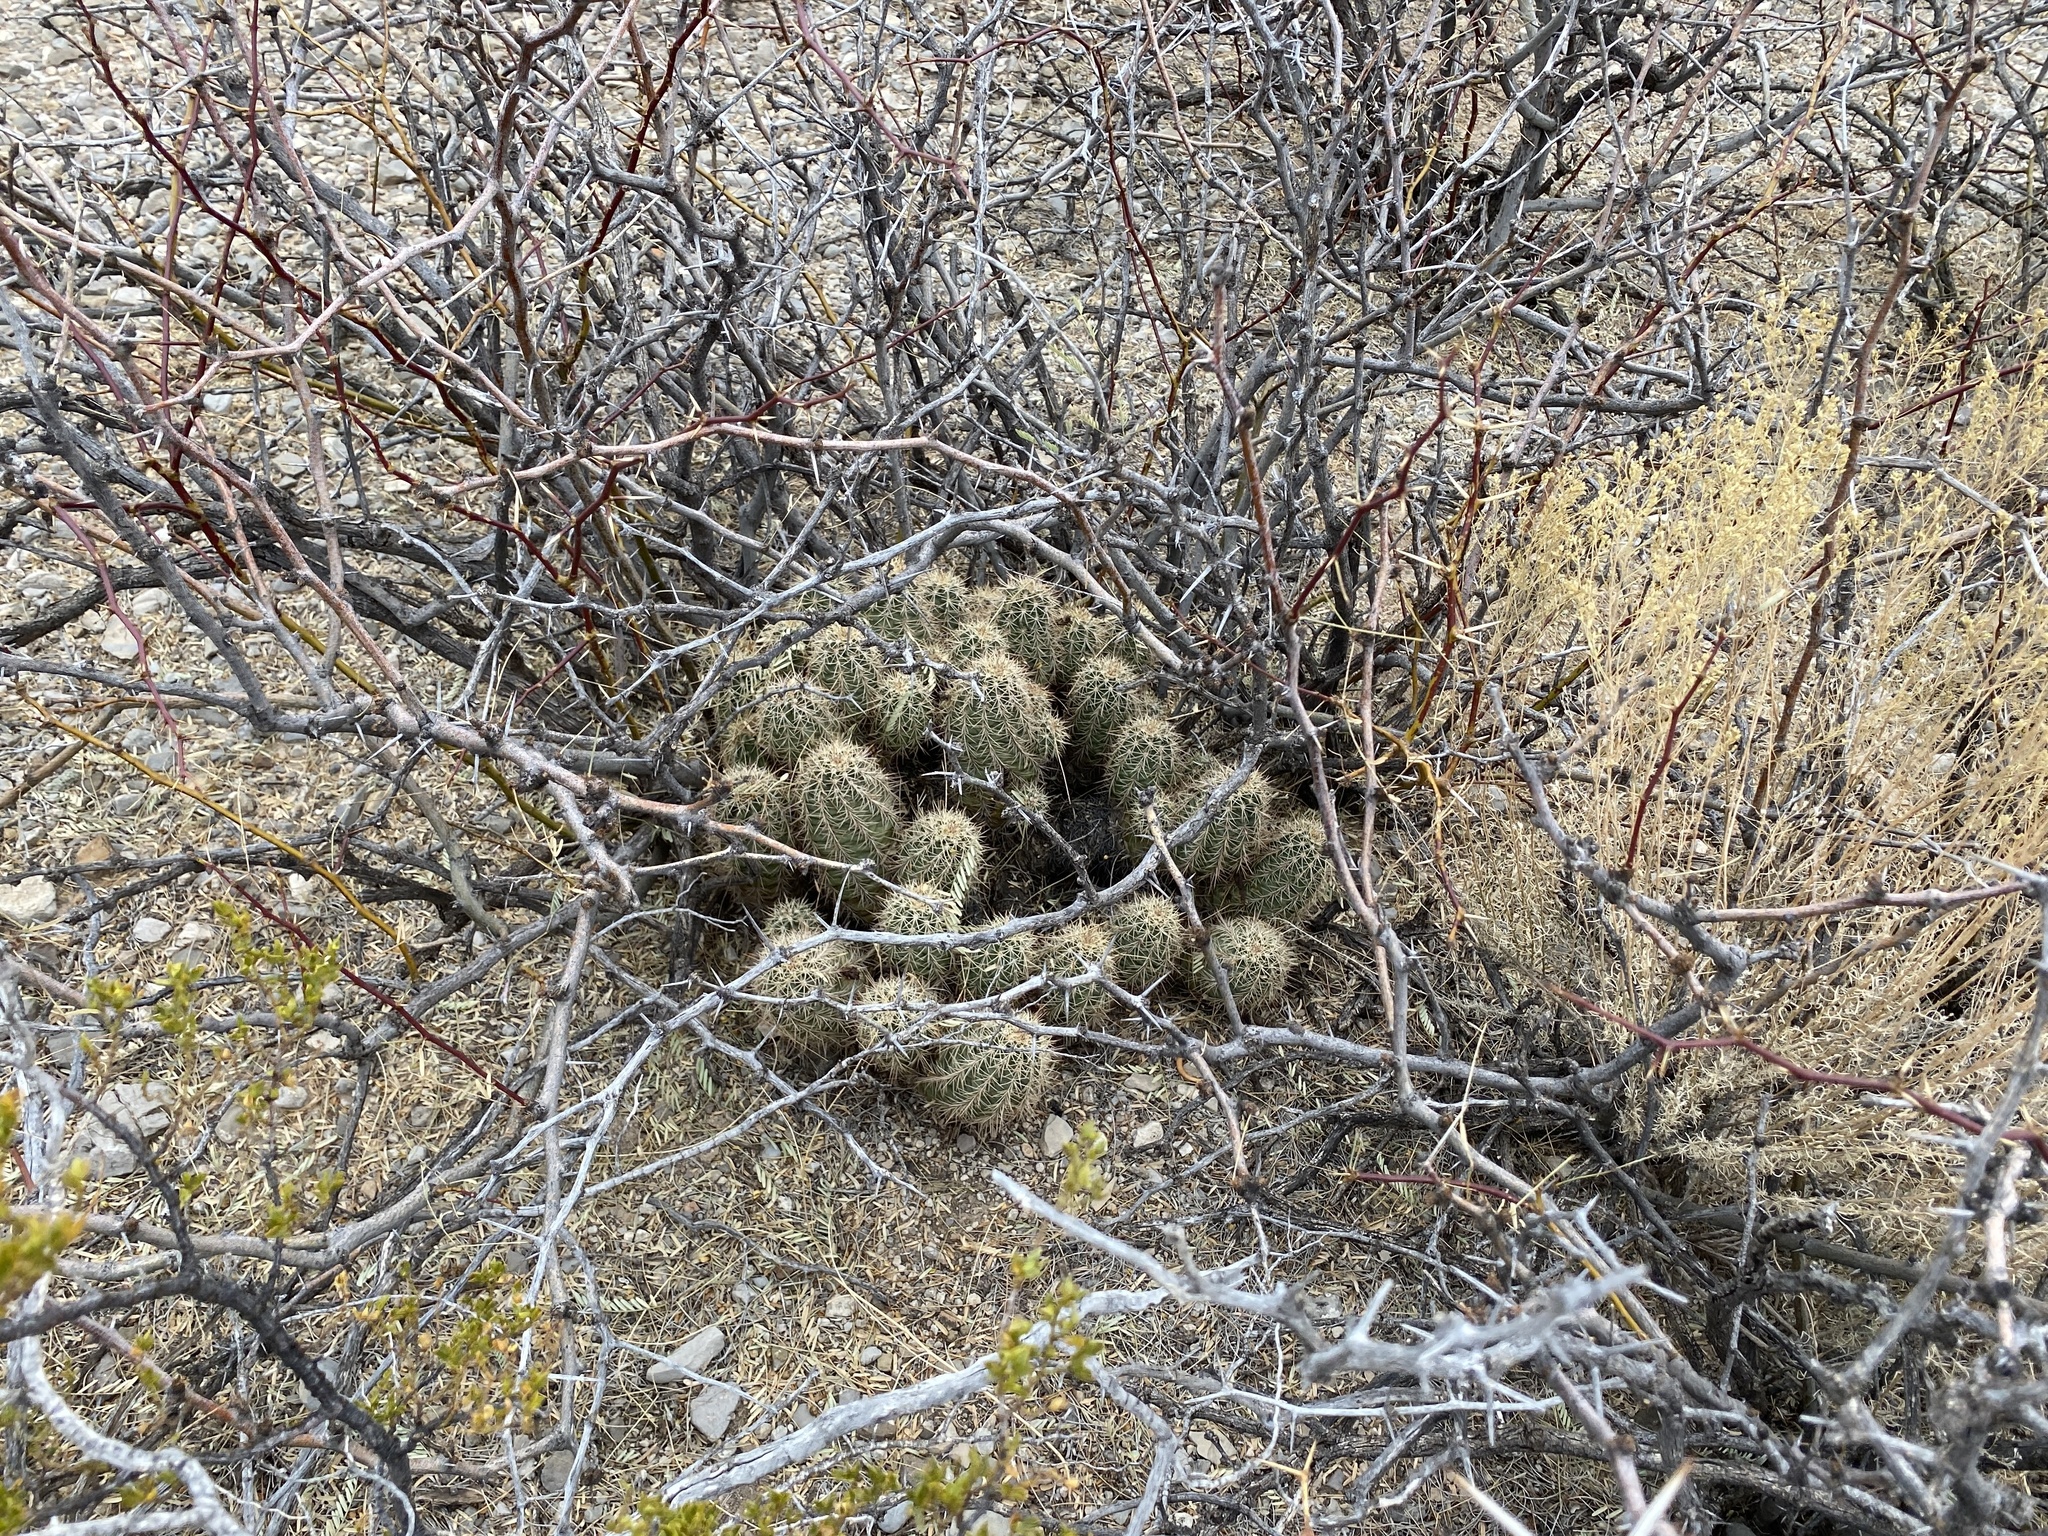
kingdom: Plantae
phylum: Tracheophyta
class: Magnoliopsida
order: Caryophyllales
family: Cactaceae
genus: Echinocereus
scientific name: Echinocereus coccineus
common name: Scarlet hedgehog cactus
